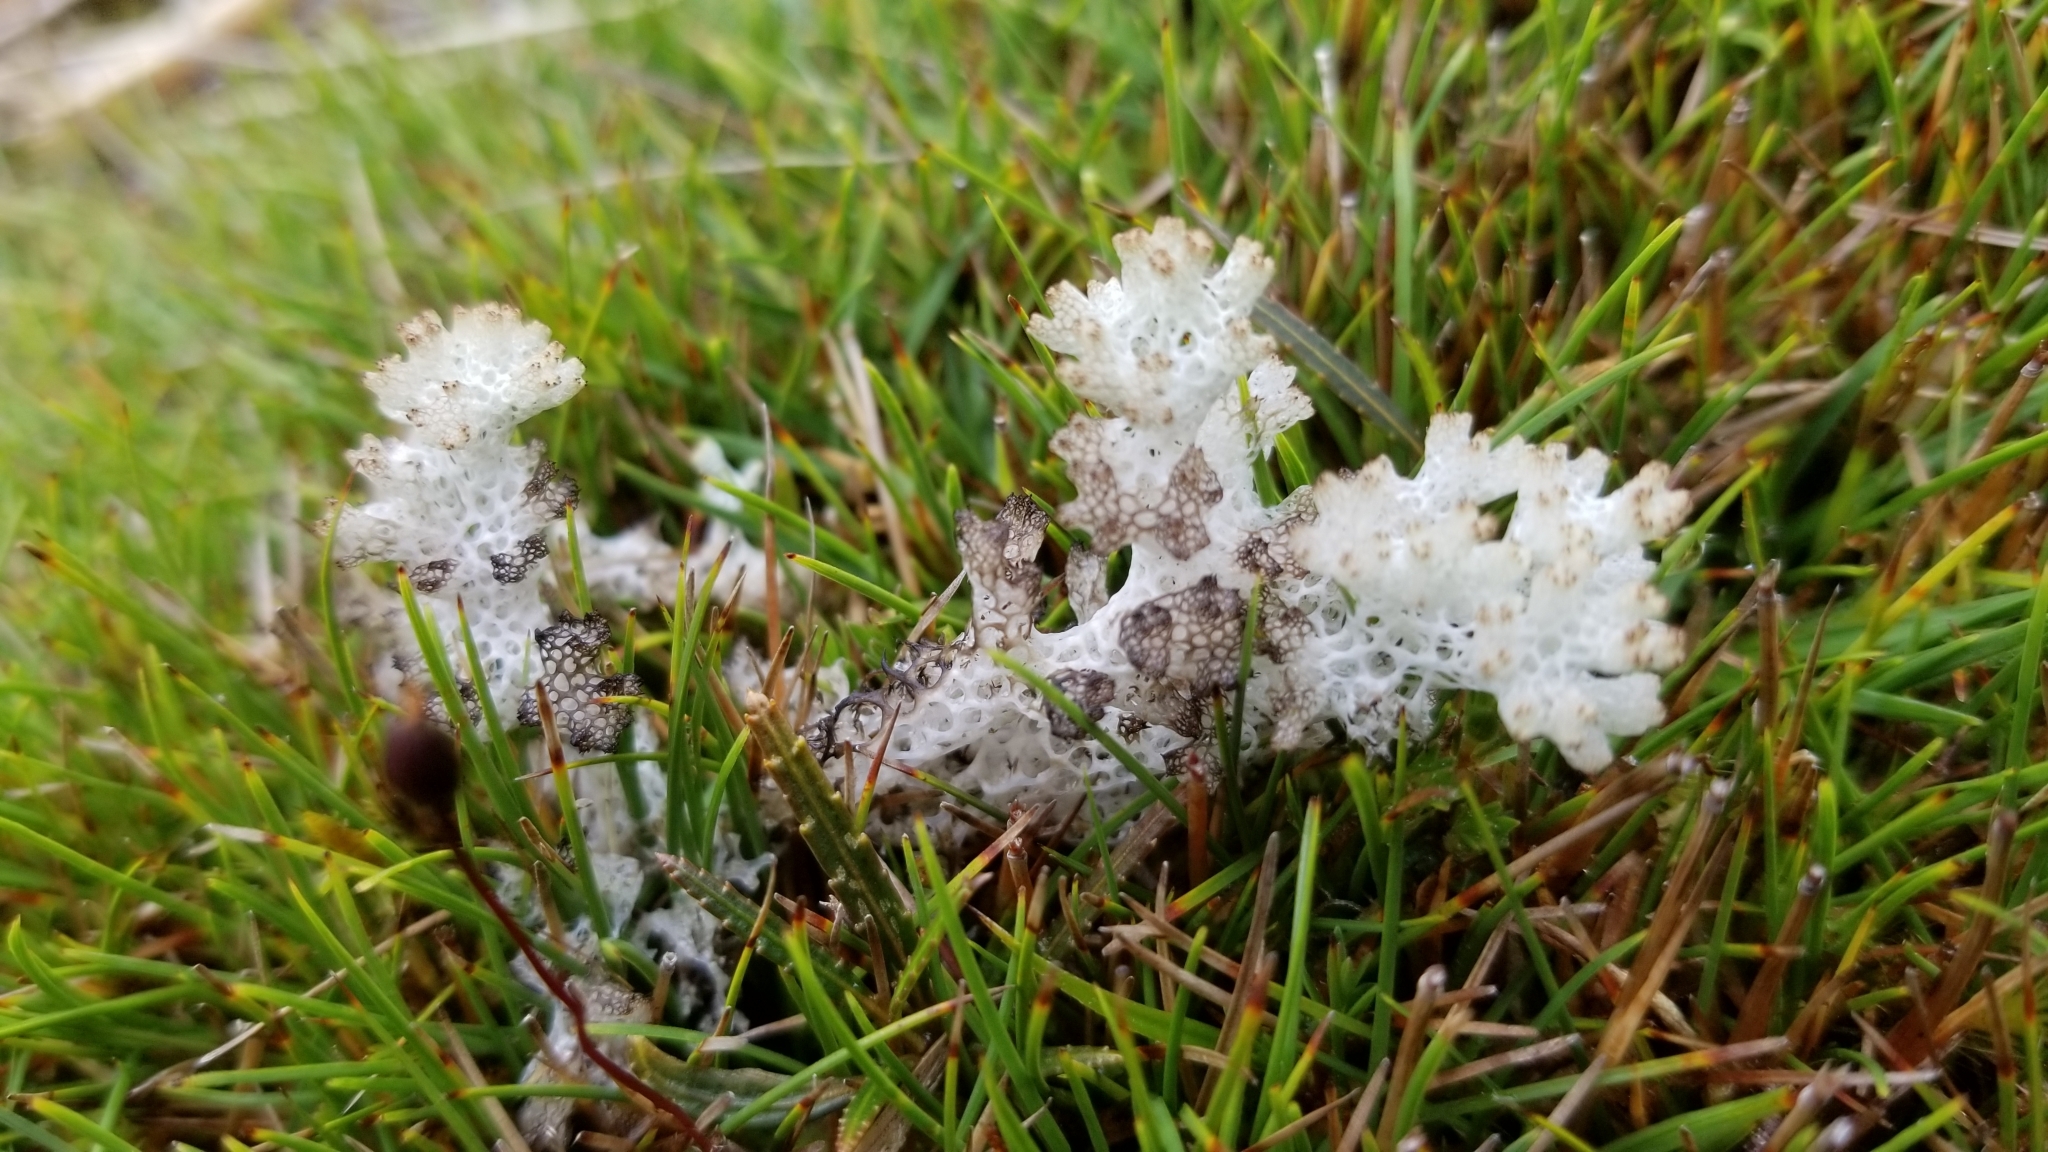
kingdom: Fungi
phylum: Ascomycota
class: Lecanoromycetes
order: Lecanorales
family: Cladoniaceae
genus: Pulchrocladia
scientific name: Pulchrocladia retipora
